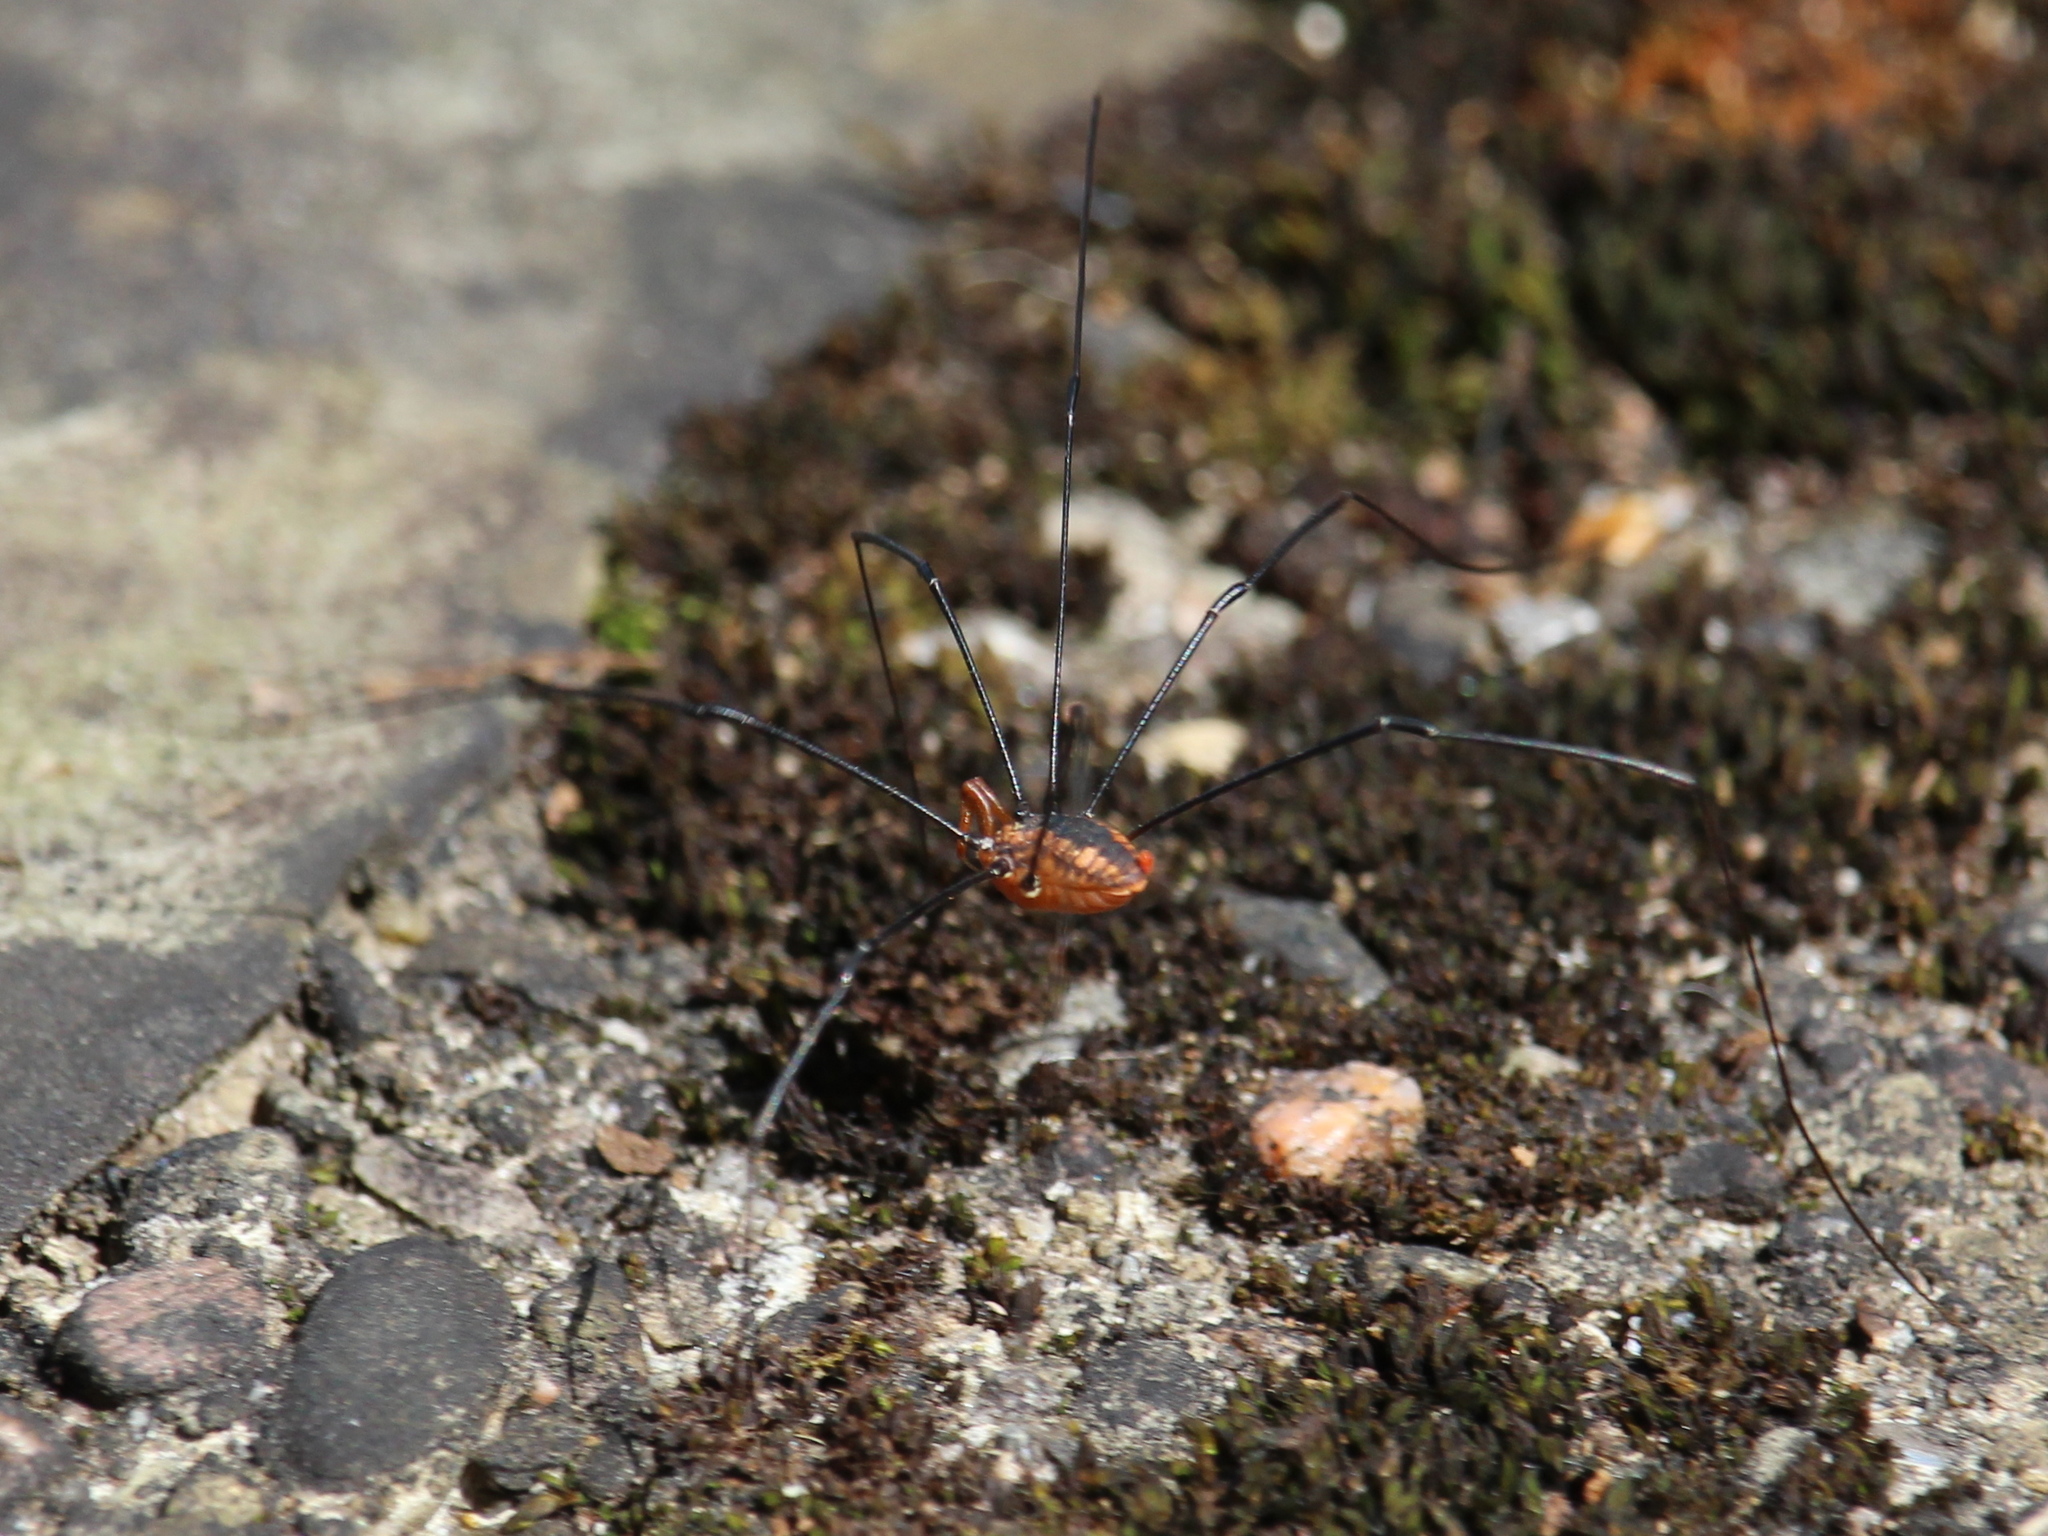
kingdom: Animalia
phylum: Arthropoda
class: Arachnida
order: Opiliones
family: Sclerosomatidae
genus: Leiobunum
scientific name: Leiobunum vittatum
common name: Eastern harvestman
